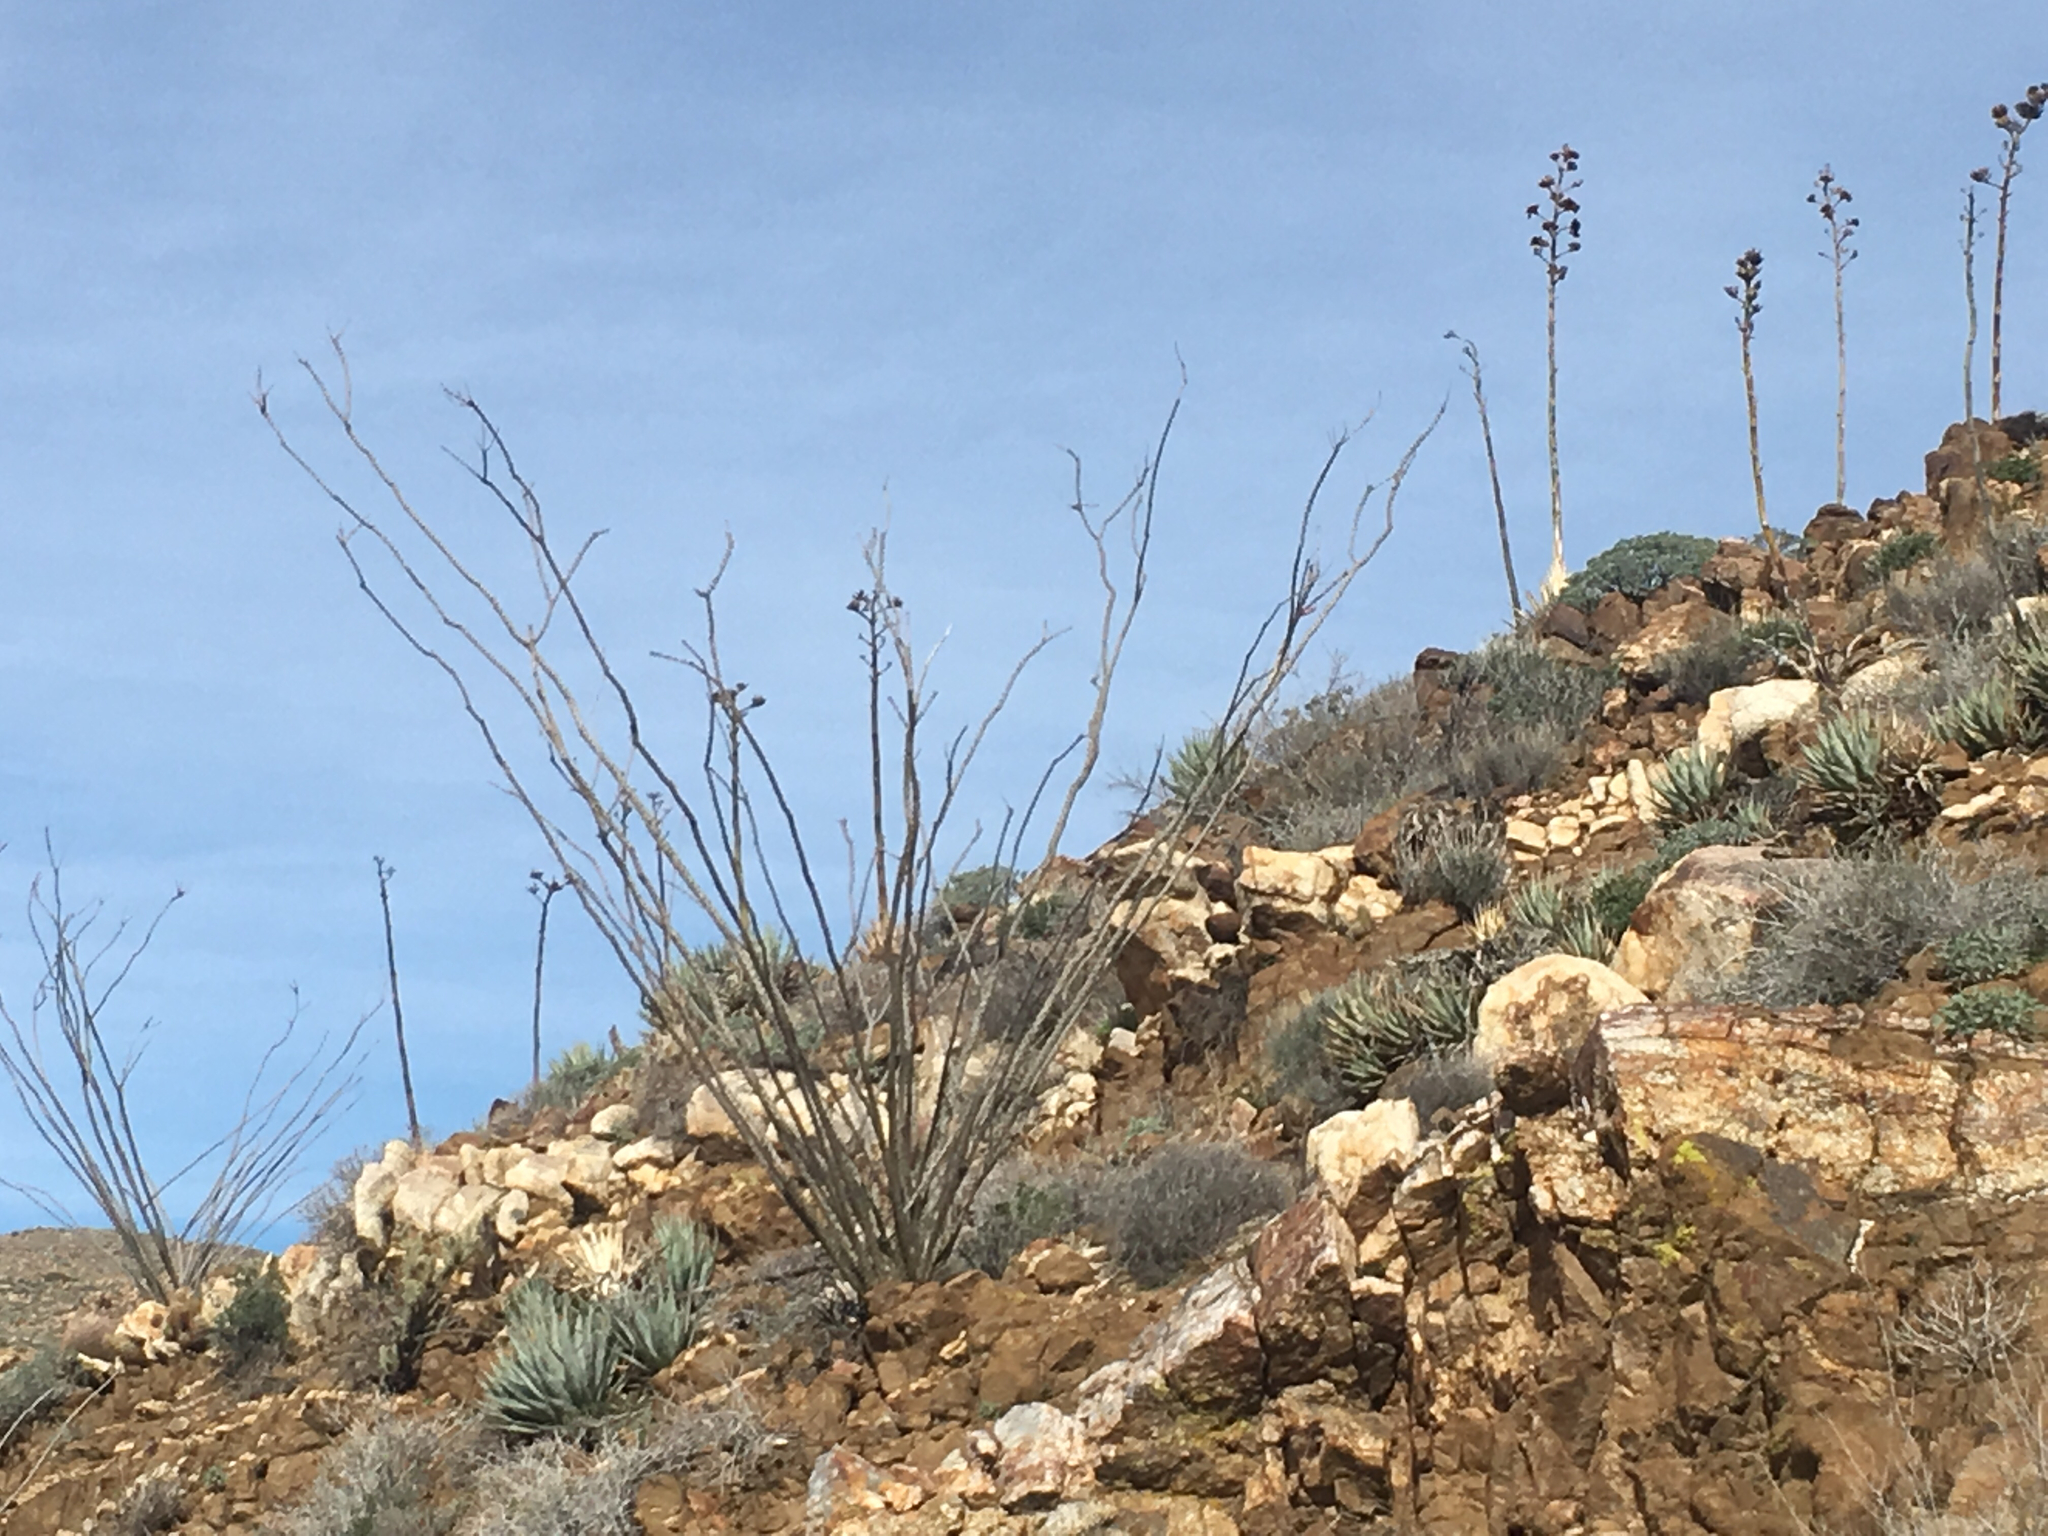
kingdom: Plantae
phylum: Tracheophyta
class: Magnoliopsida
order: Ericales
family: Fouquieriaceae
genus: Fouquieria
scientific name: Fouquieria splendens
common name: Vine-cactus
